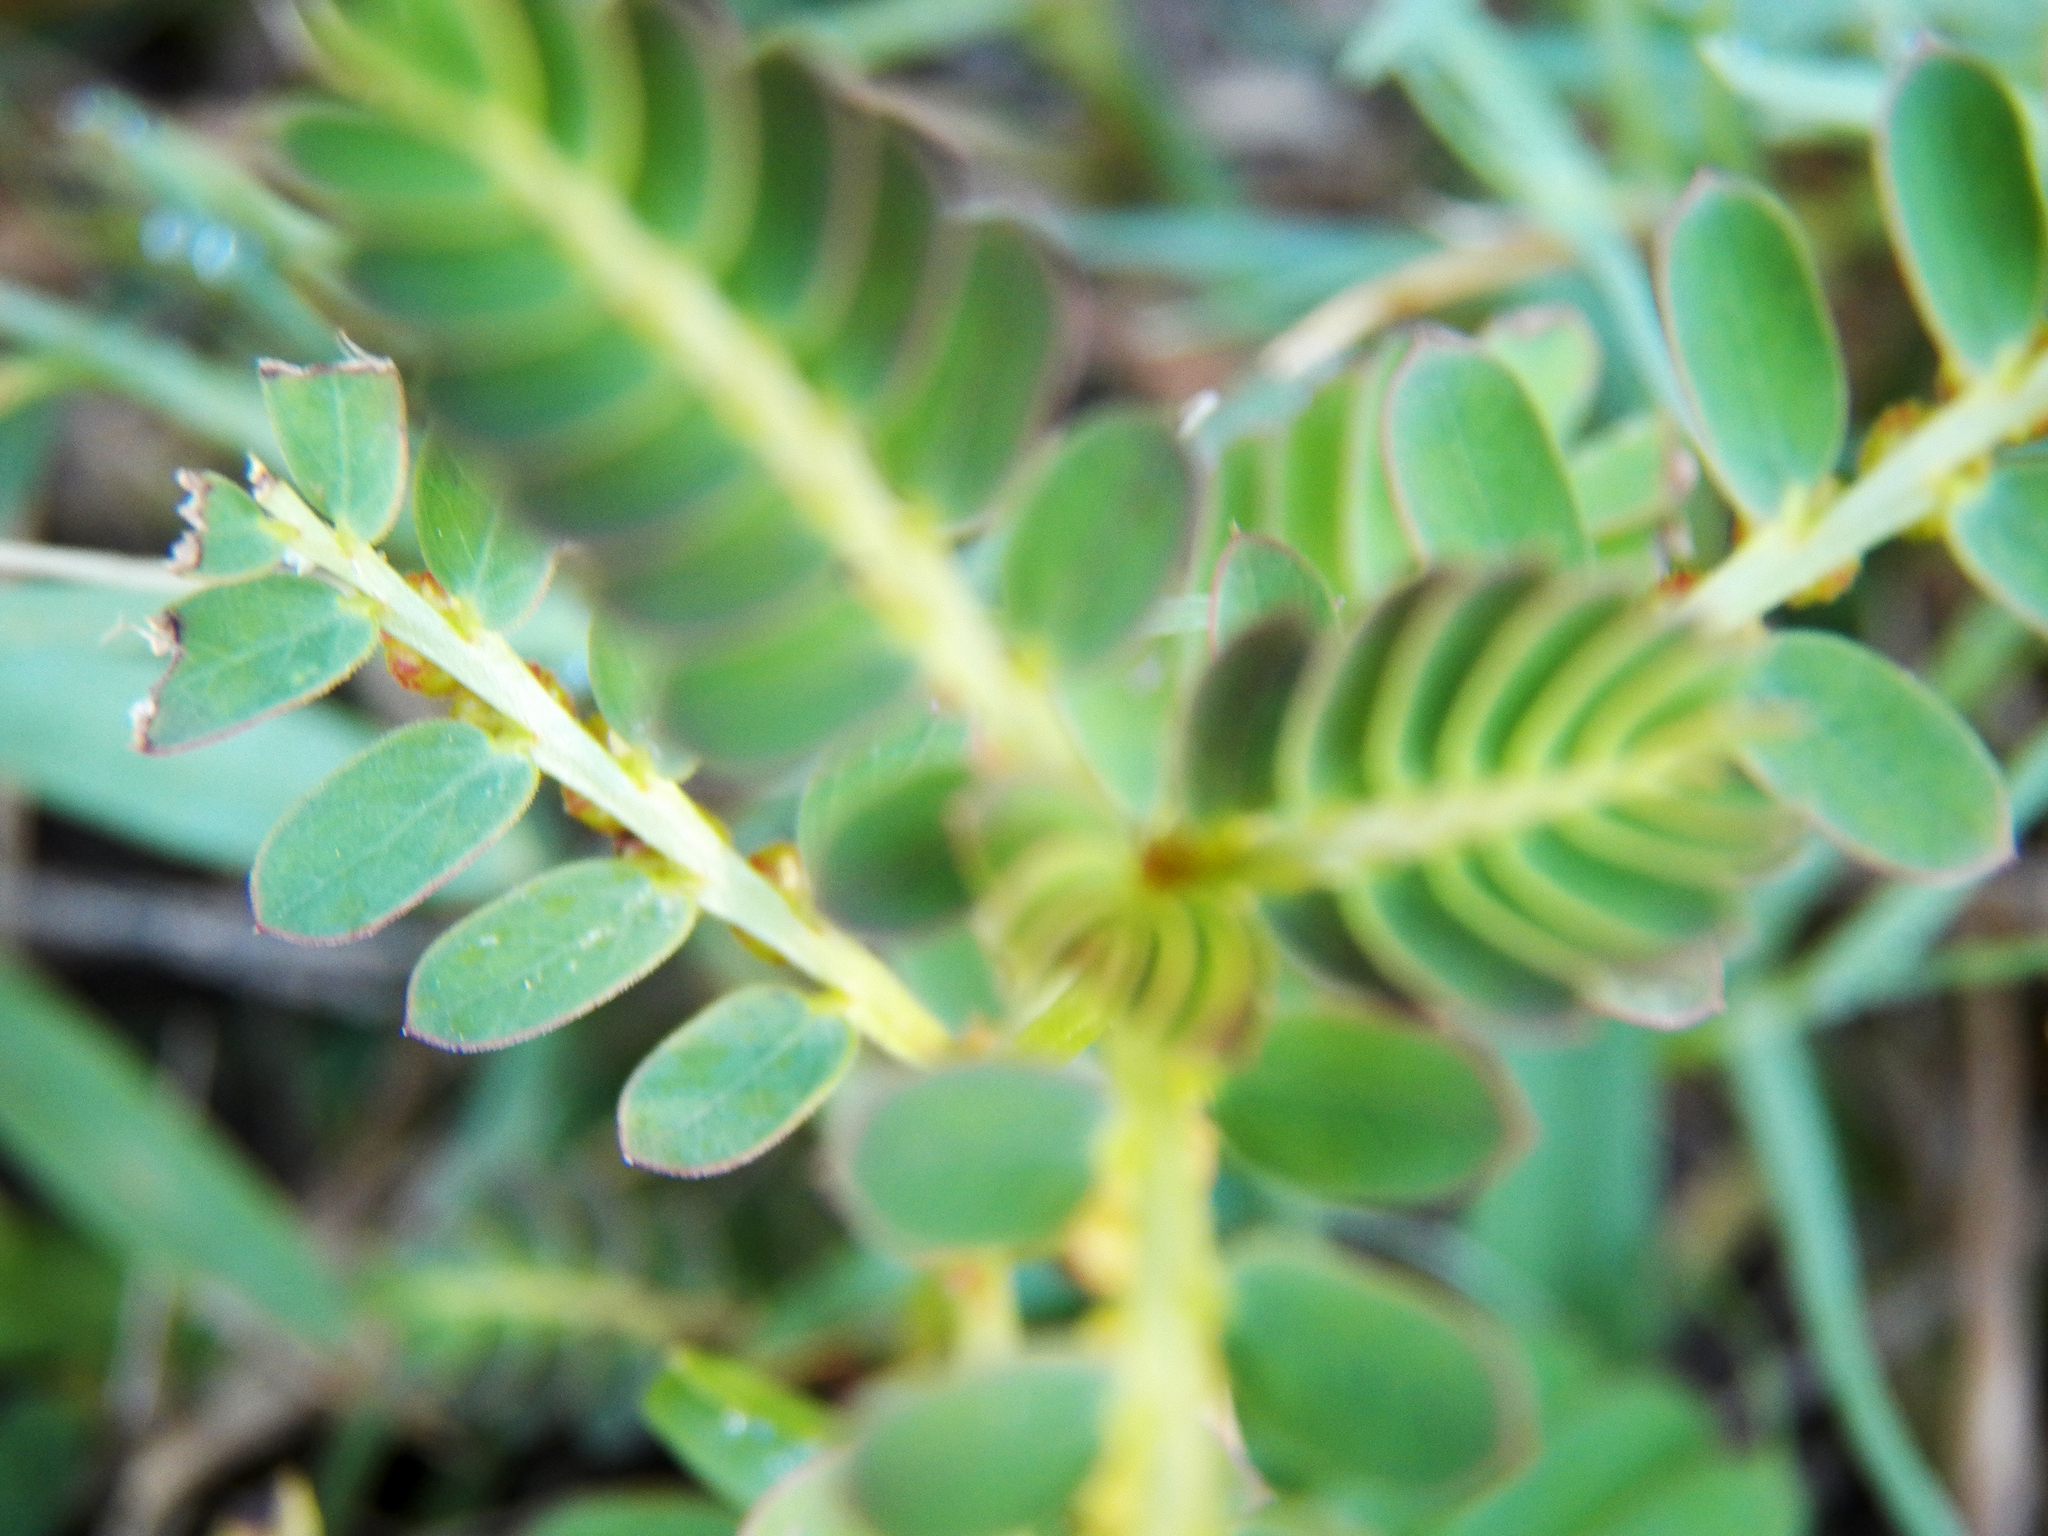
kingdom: Plantae
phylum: Tracheophyta
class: Magnoliopsida
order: Malpighiales
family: Phyllanthaceae
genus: Phyllanthus
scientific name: Phyllanthus urinaria
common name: Chamber bitter
